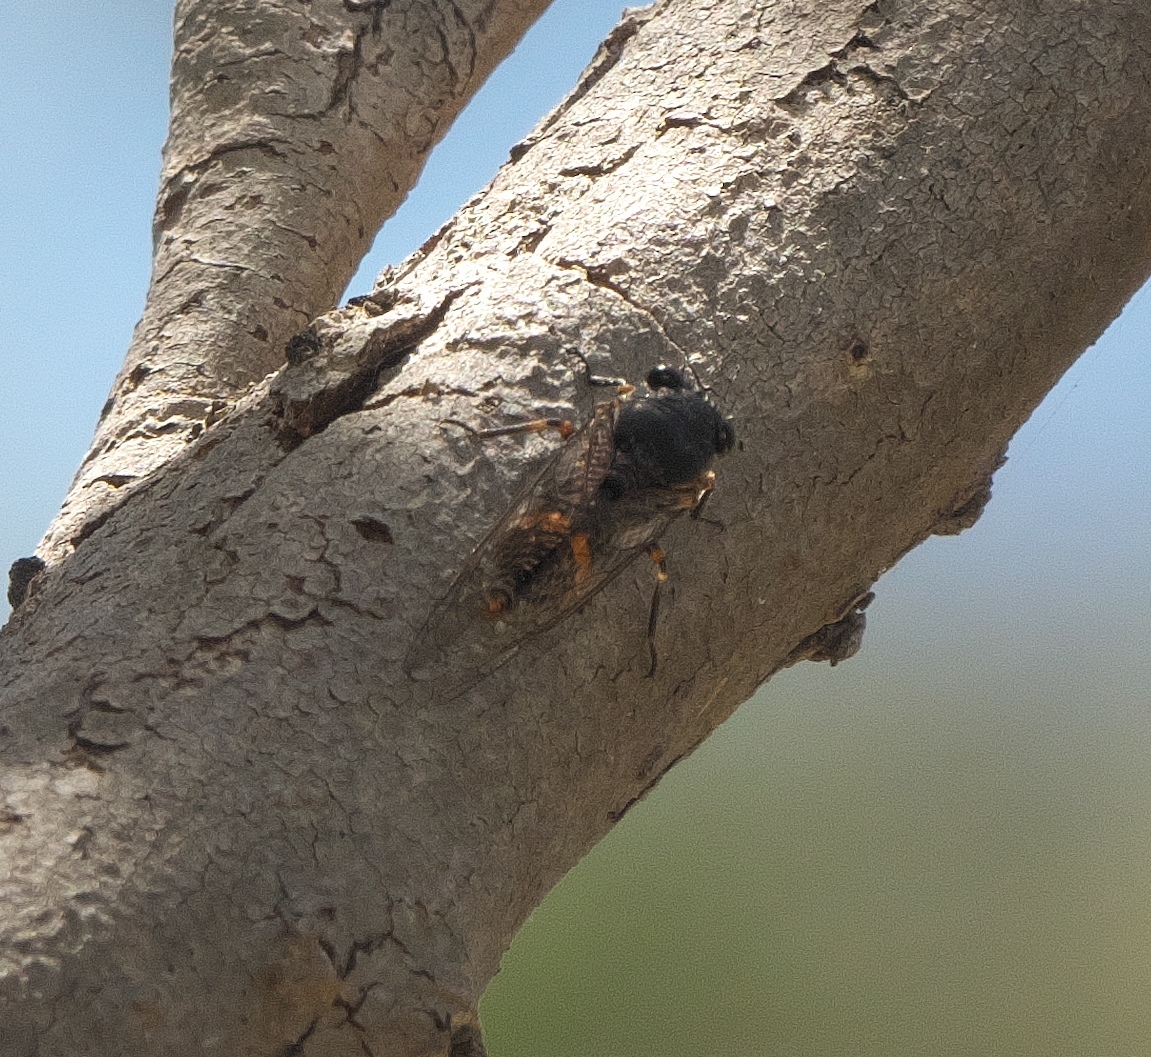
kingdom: Animalia
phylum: Arthropoda
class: Insecta
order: Hemiptera
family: Cicadidae
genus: Pyropsalta
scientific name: Pyropsalta melete
